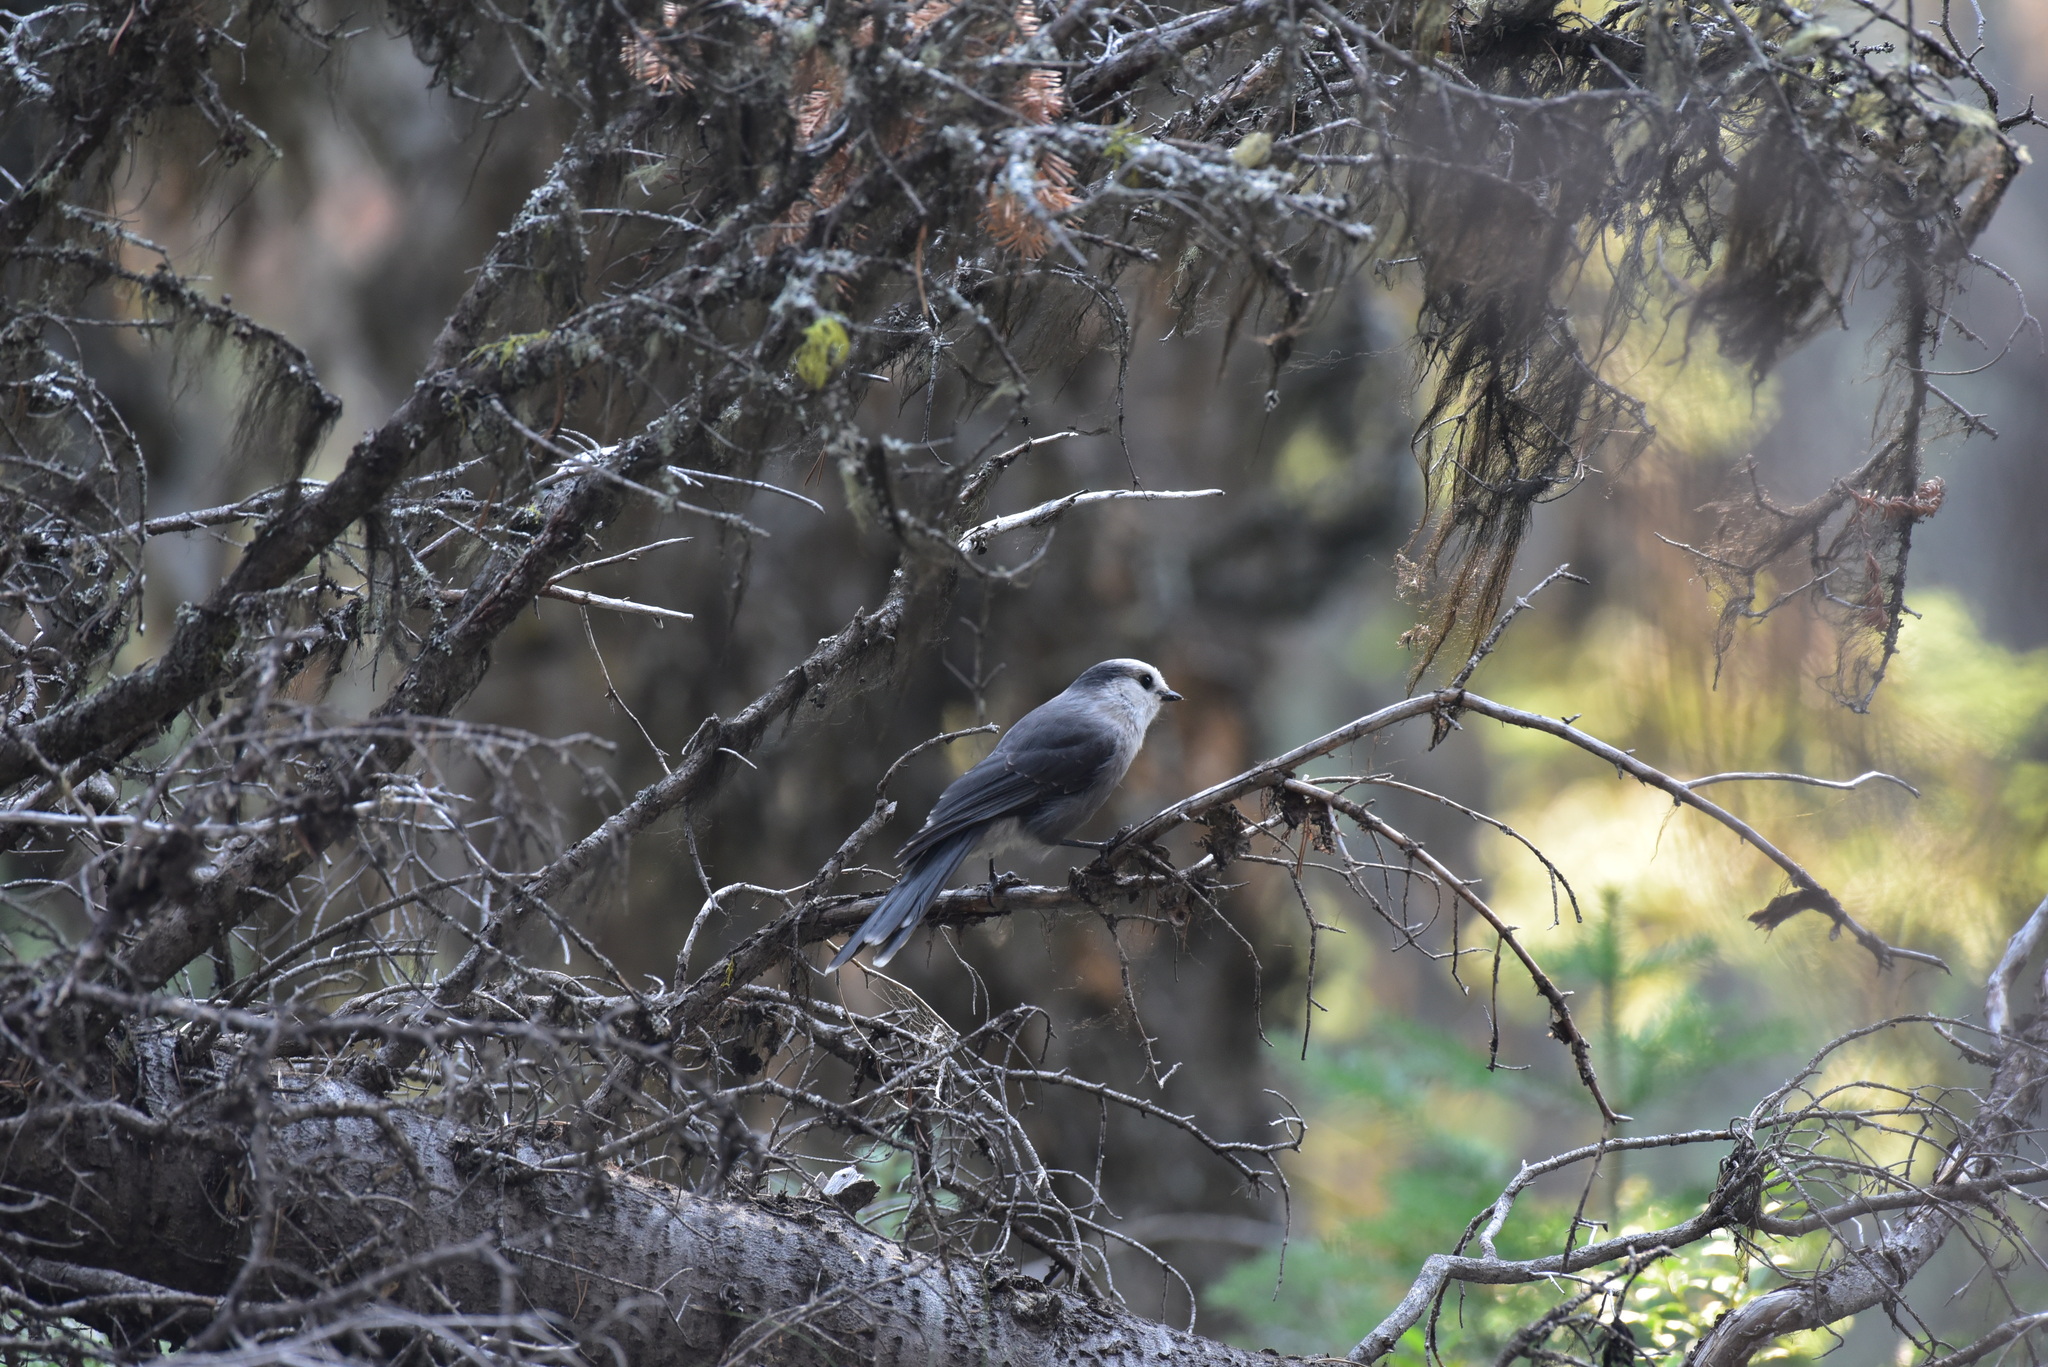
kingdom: Animalia
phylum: Chordata
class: Aves
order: Passeriformes
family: Corvidae
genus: Perisoreus
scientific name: Perisoreus canadensis
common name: Gray jay
